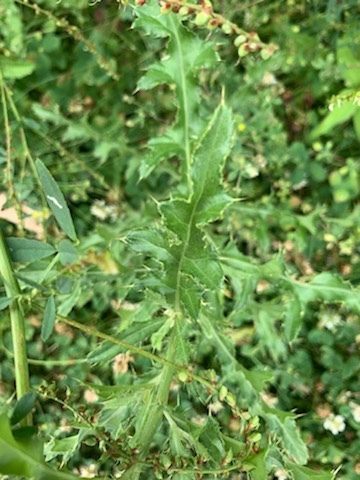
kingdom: Plantae
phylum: Tracheophyta
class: Magnoliopsida
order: Asterales
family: Asteraceae
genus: Cirsium
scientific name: Cirsium arvense
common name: Creeping thistle
